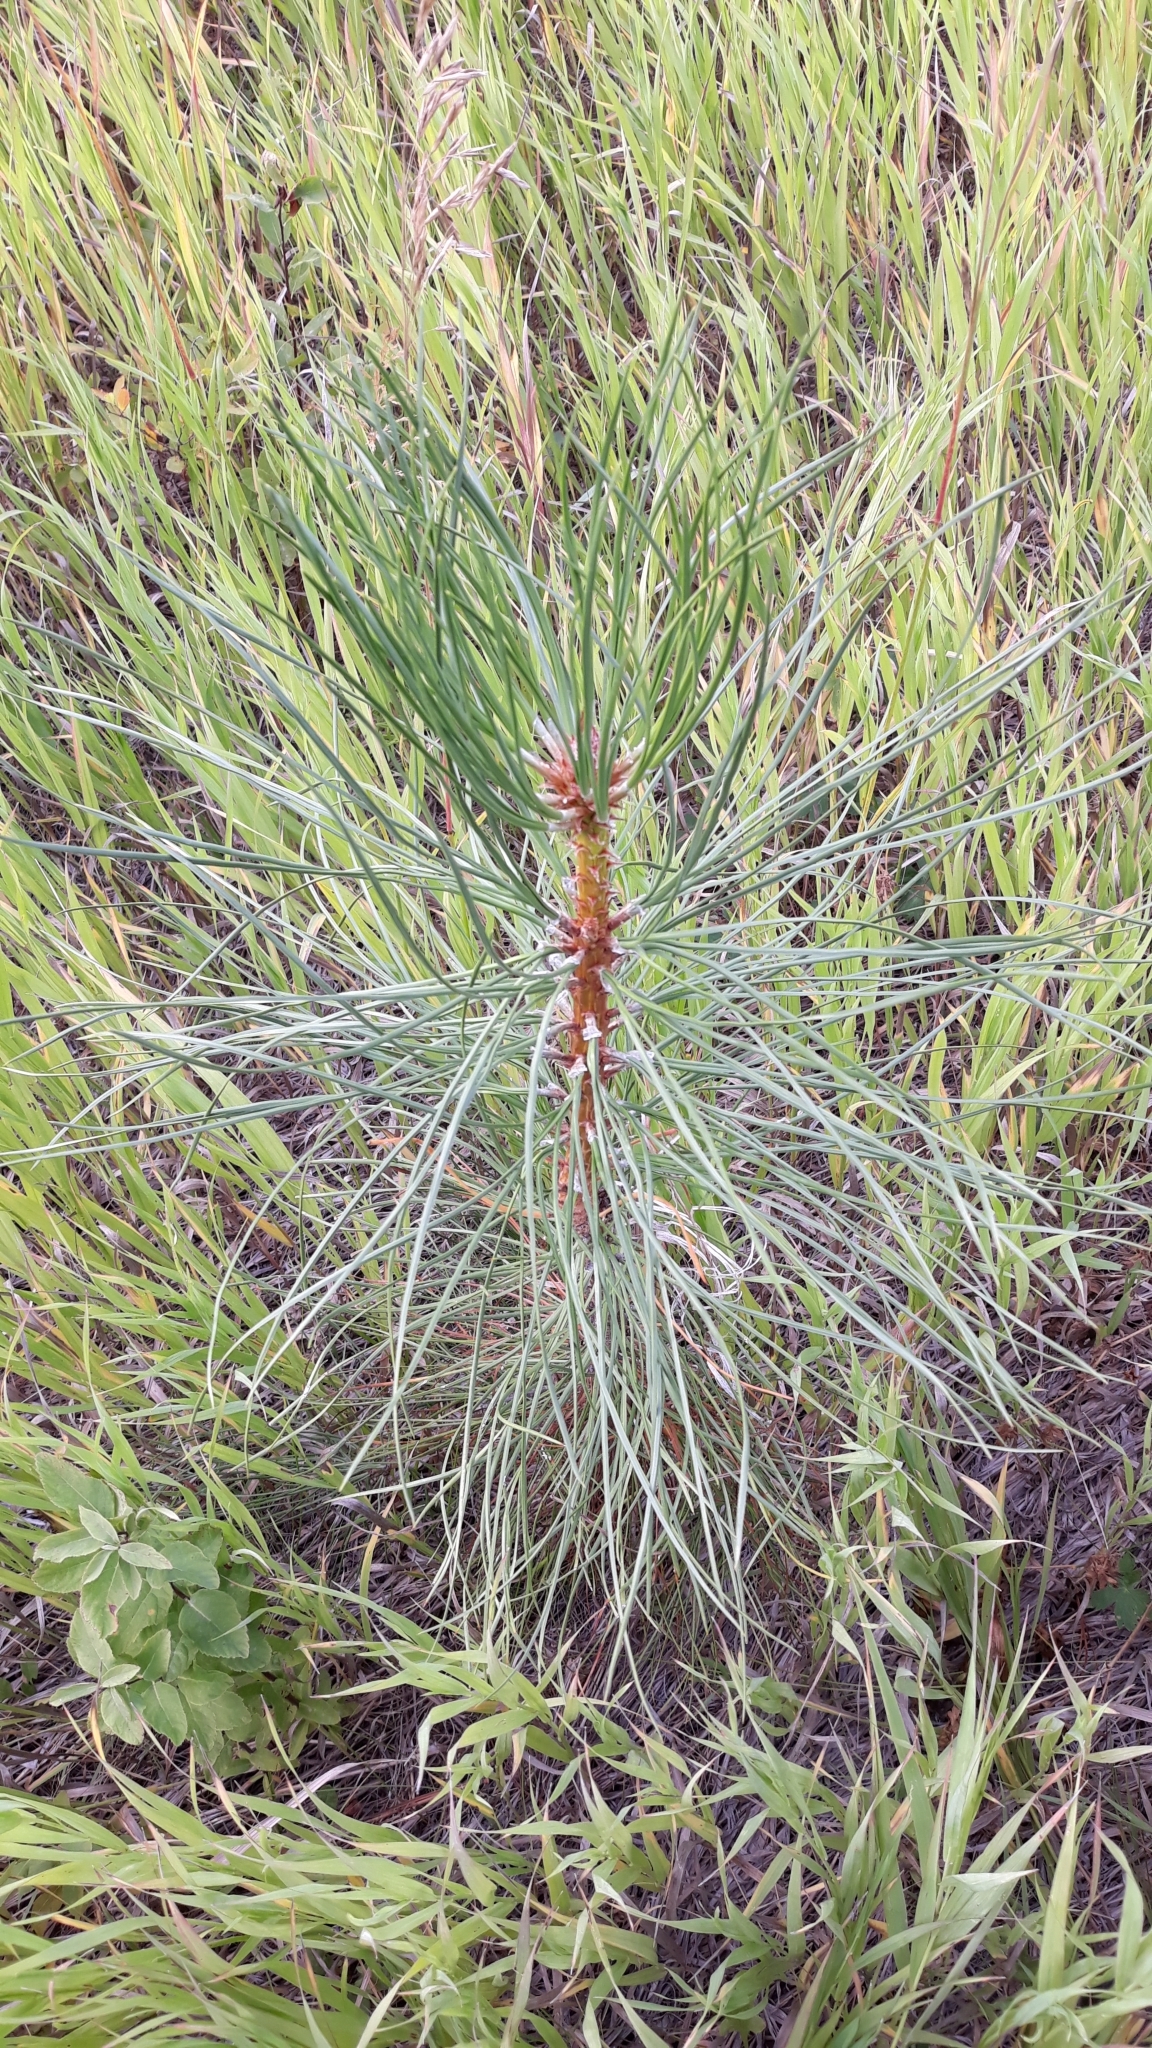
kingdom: Plantae
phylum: Tracheophyta
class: Pinopsida
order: Pinales
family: Pinaceae
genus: Pinus
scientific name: Pinus ponderosa
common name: Western yellow-pine
